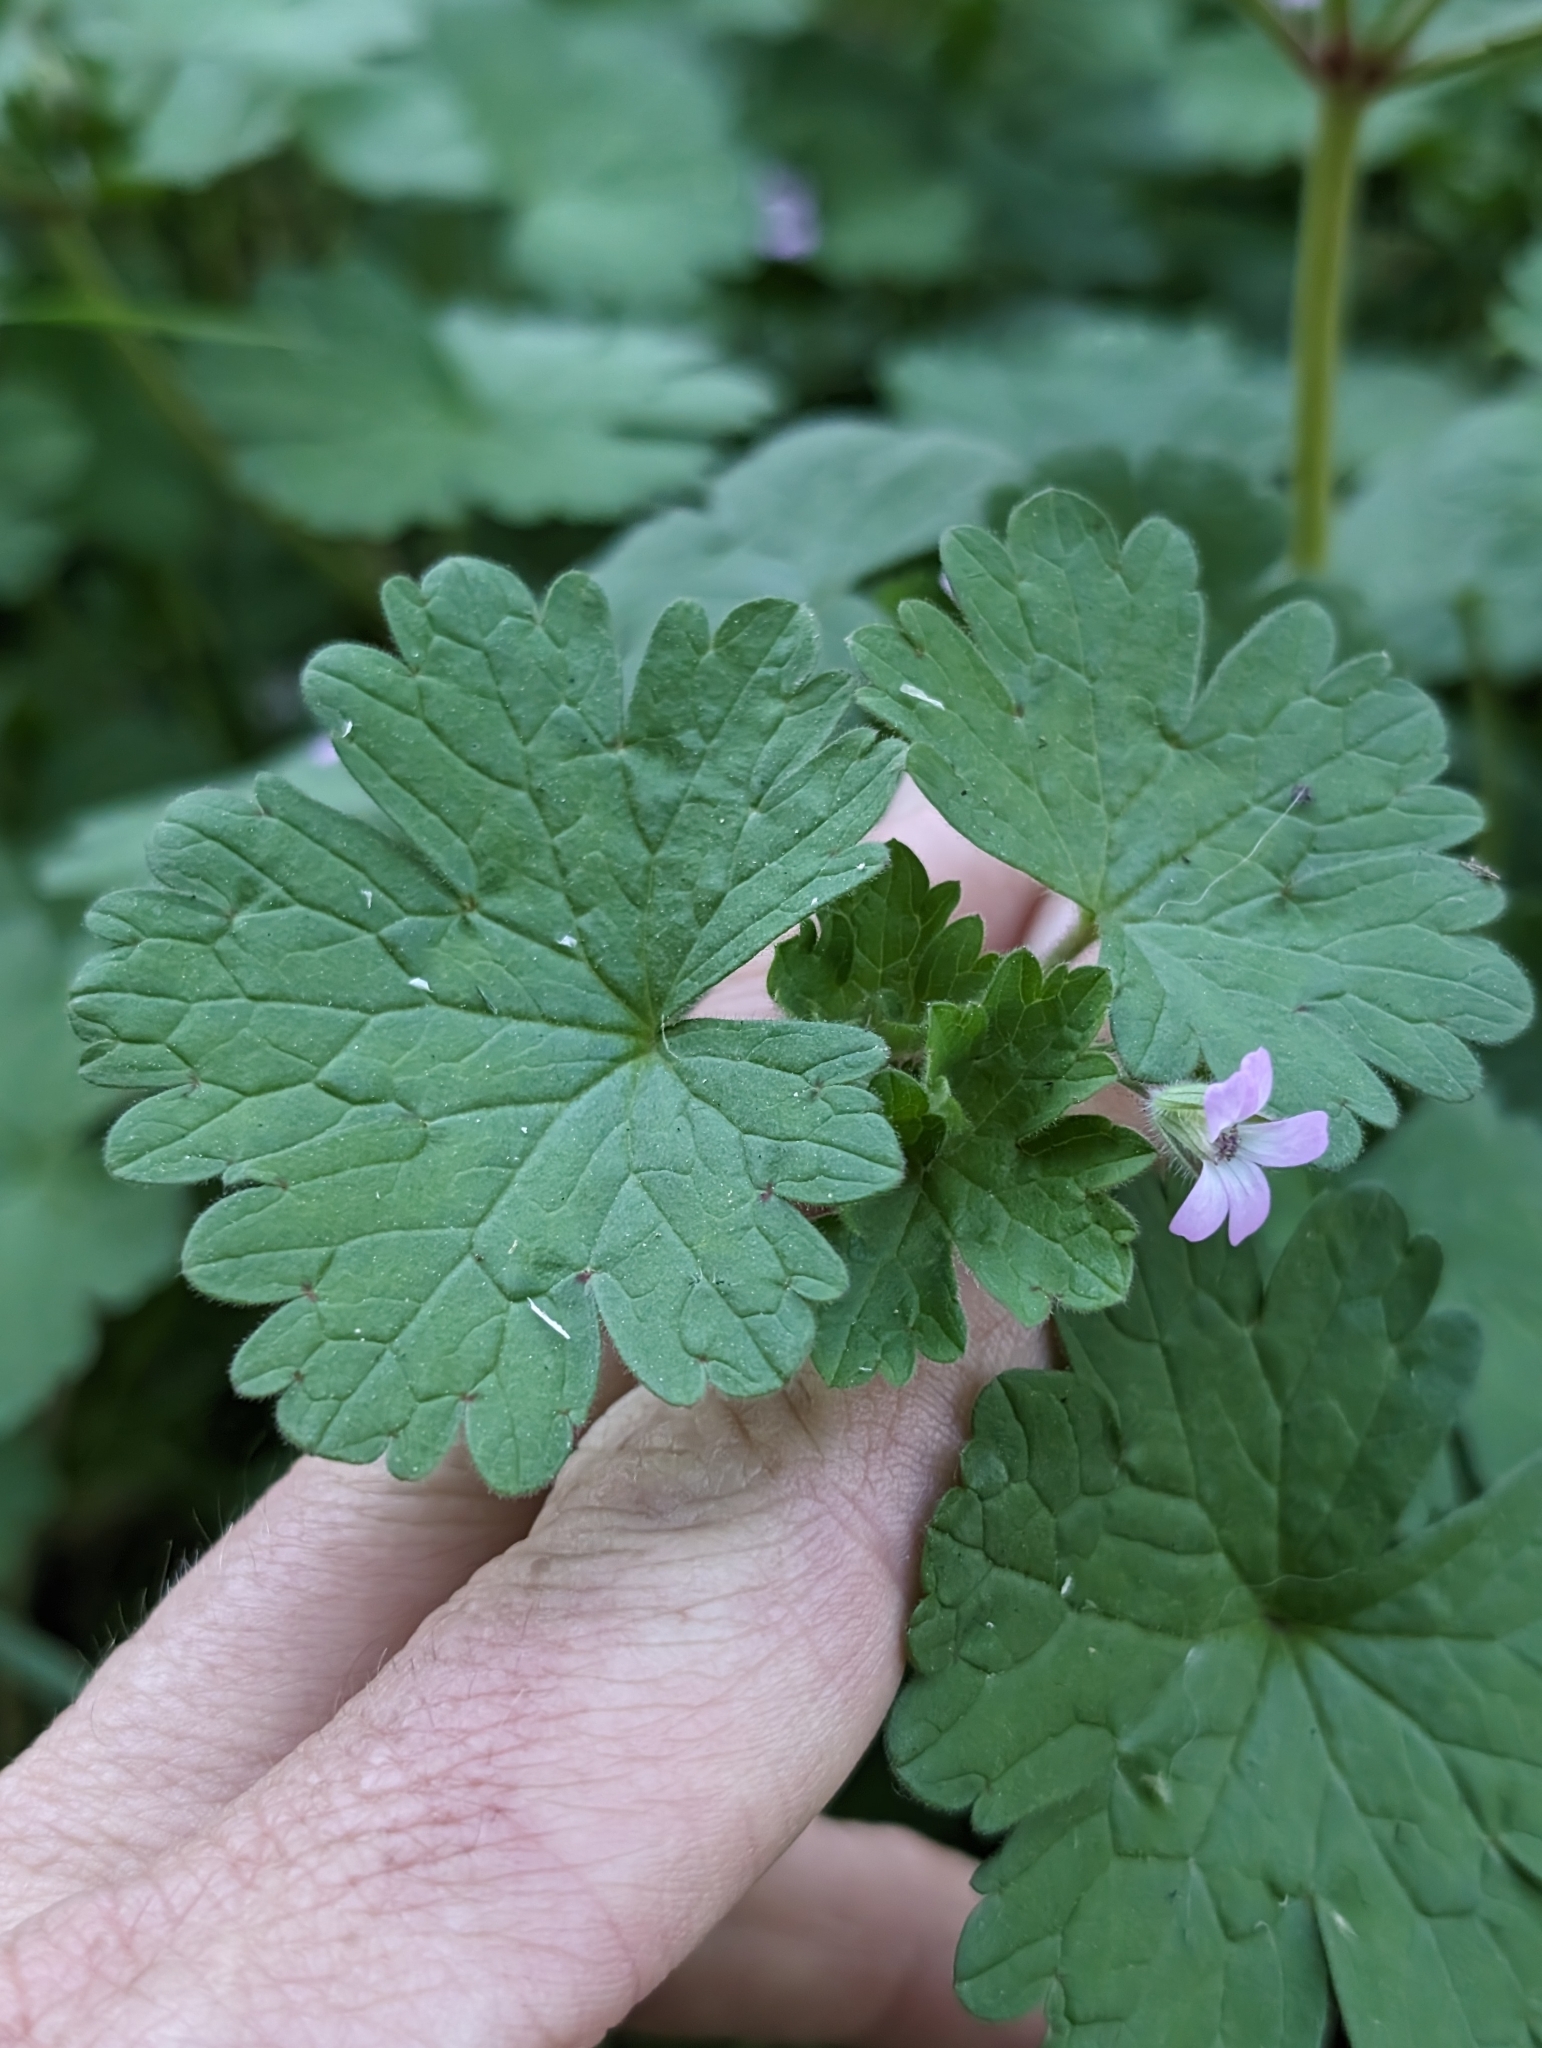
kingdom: Plantae
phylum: Tracheophyta
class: Magnoliopsida
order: Geraniales
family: Geraniaceae
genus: Geranium
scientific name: Geranium rotundifolium
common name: Round-leaved crane's-bill
